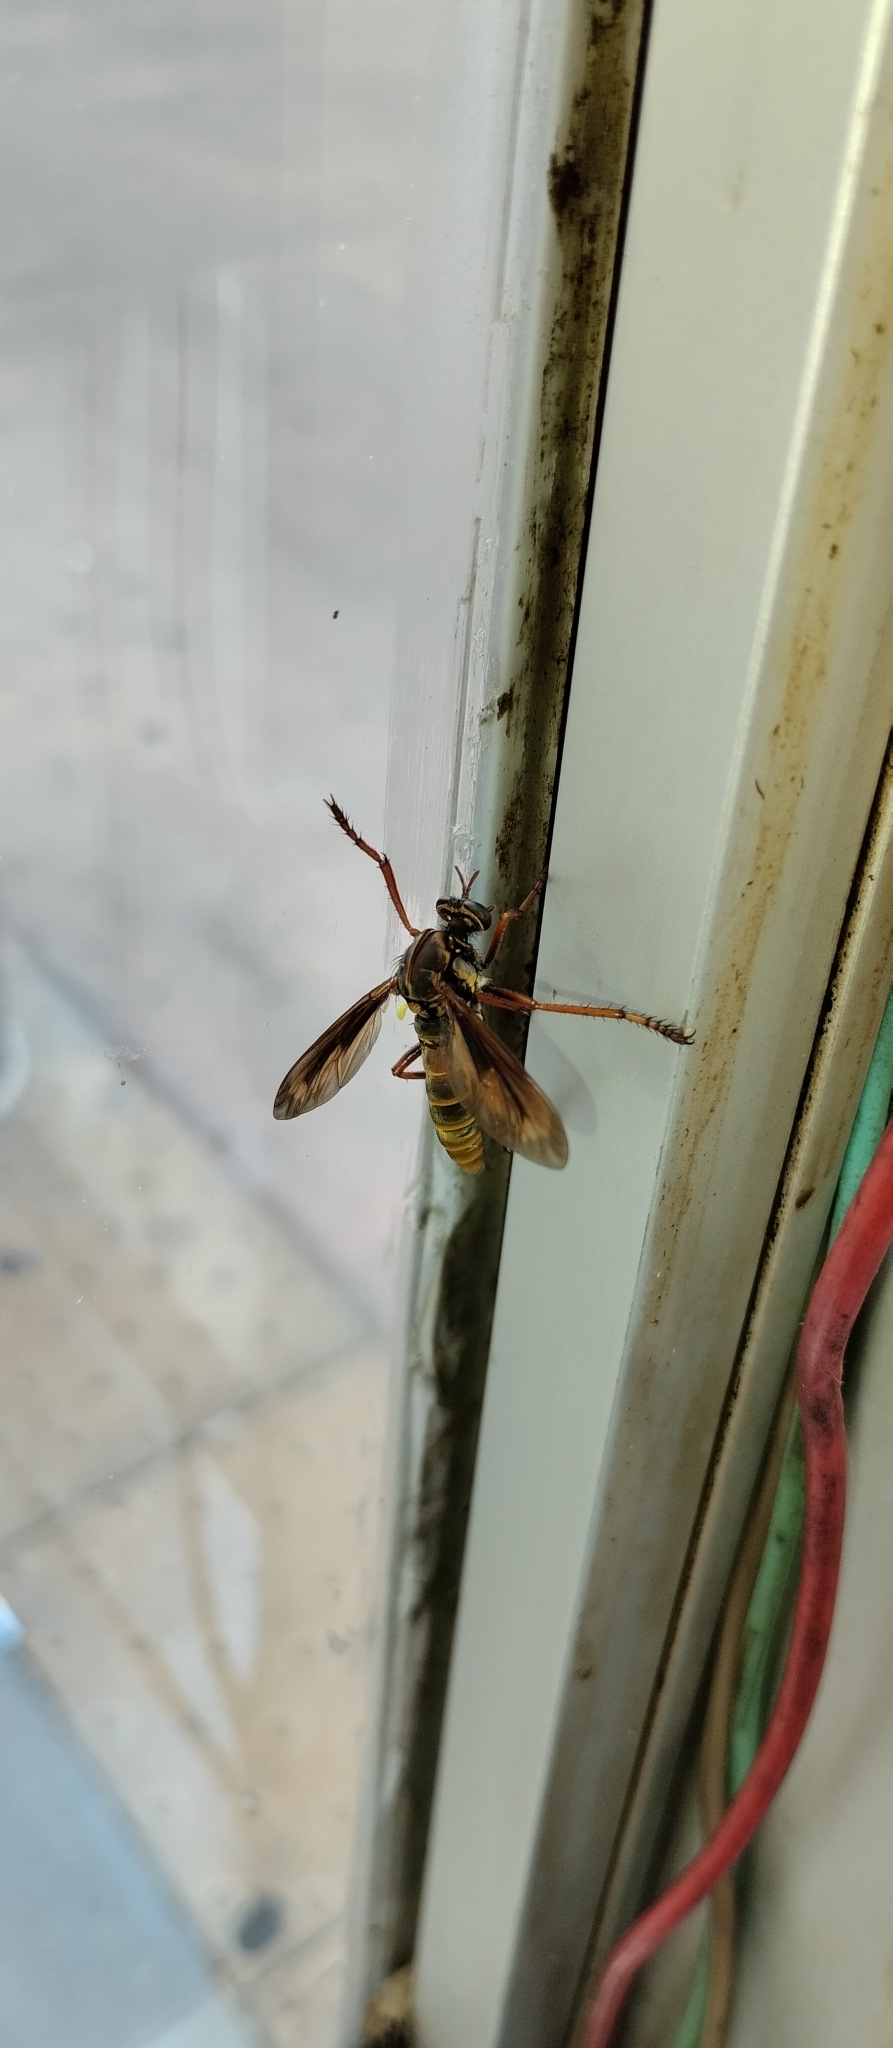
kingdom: Animalia
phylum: Arthropoda
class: Insecta
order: Diptera
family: Asilidae
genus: Blepharepium
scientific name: Blepharepium cajennense
